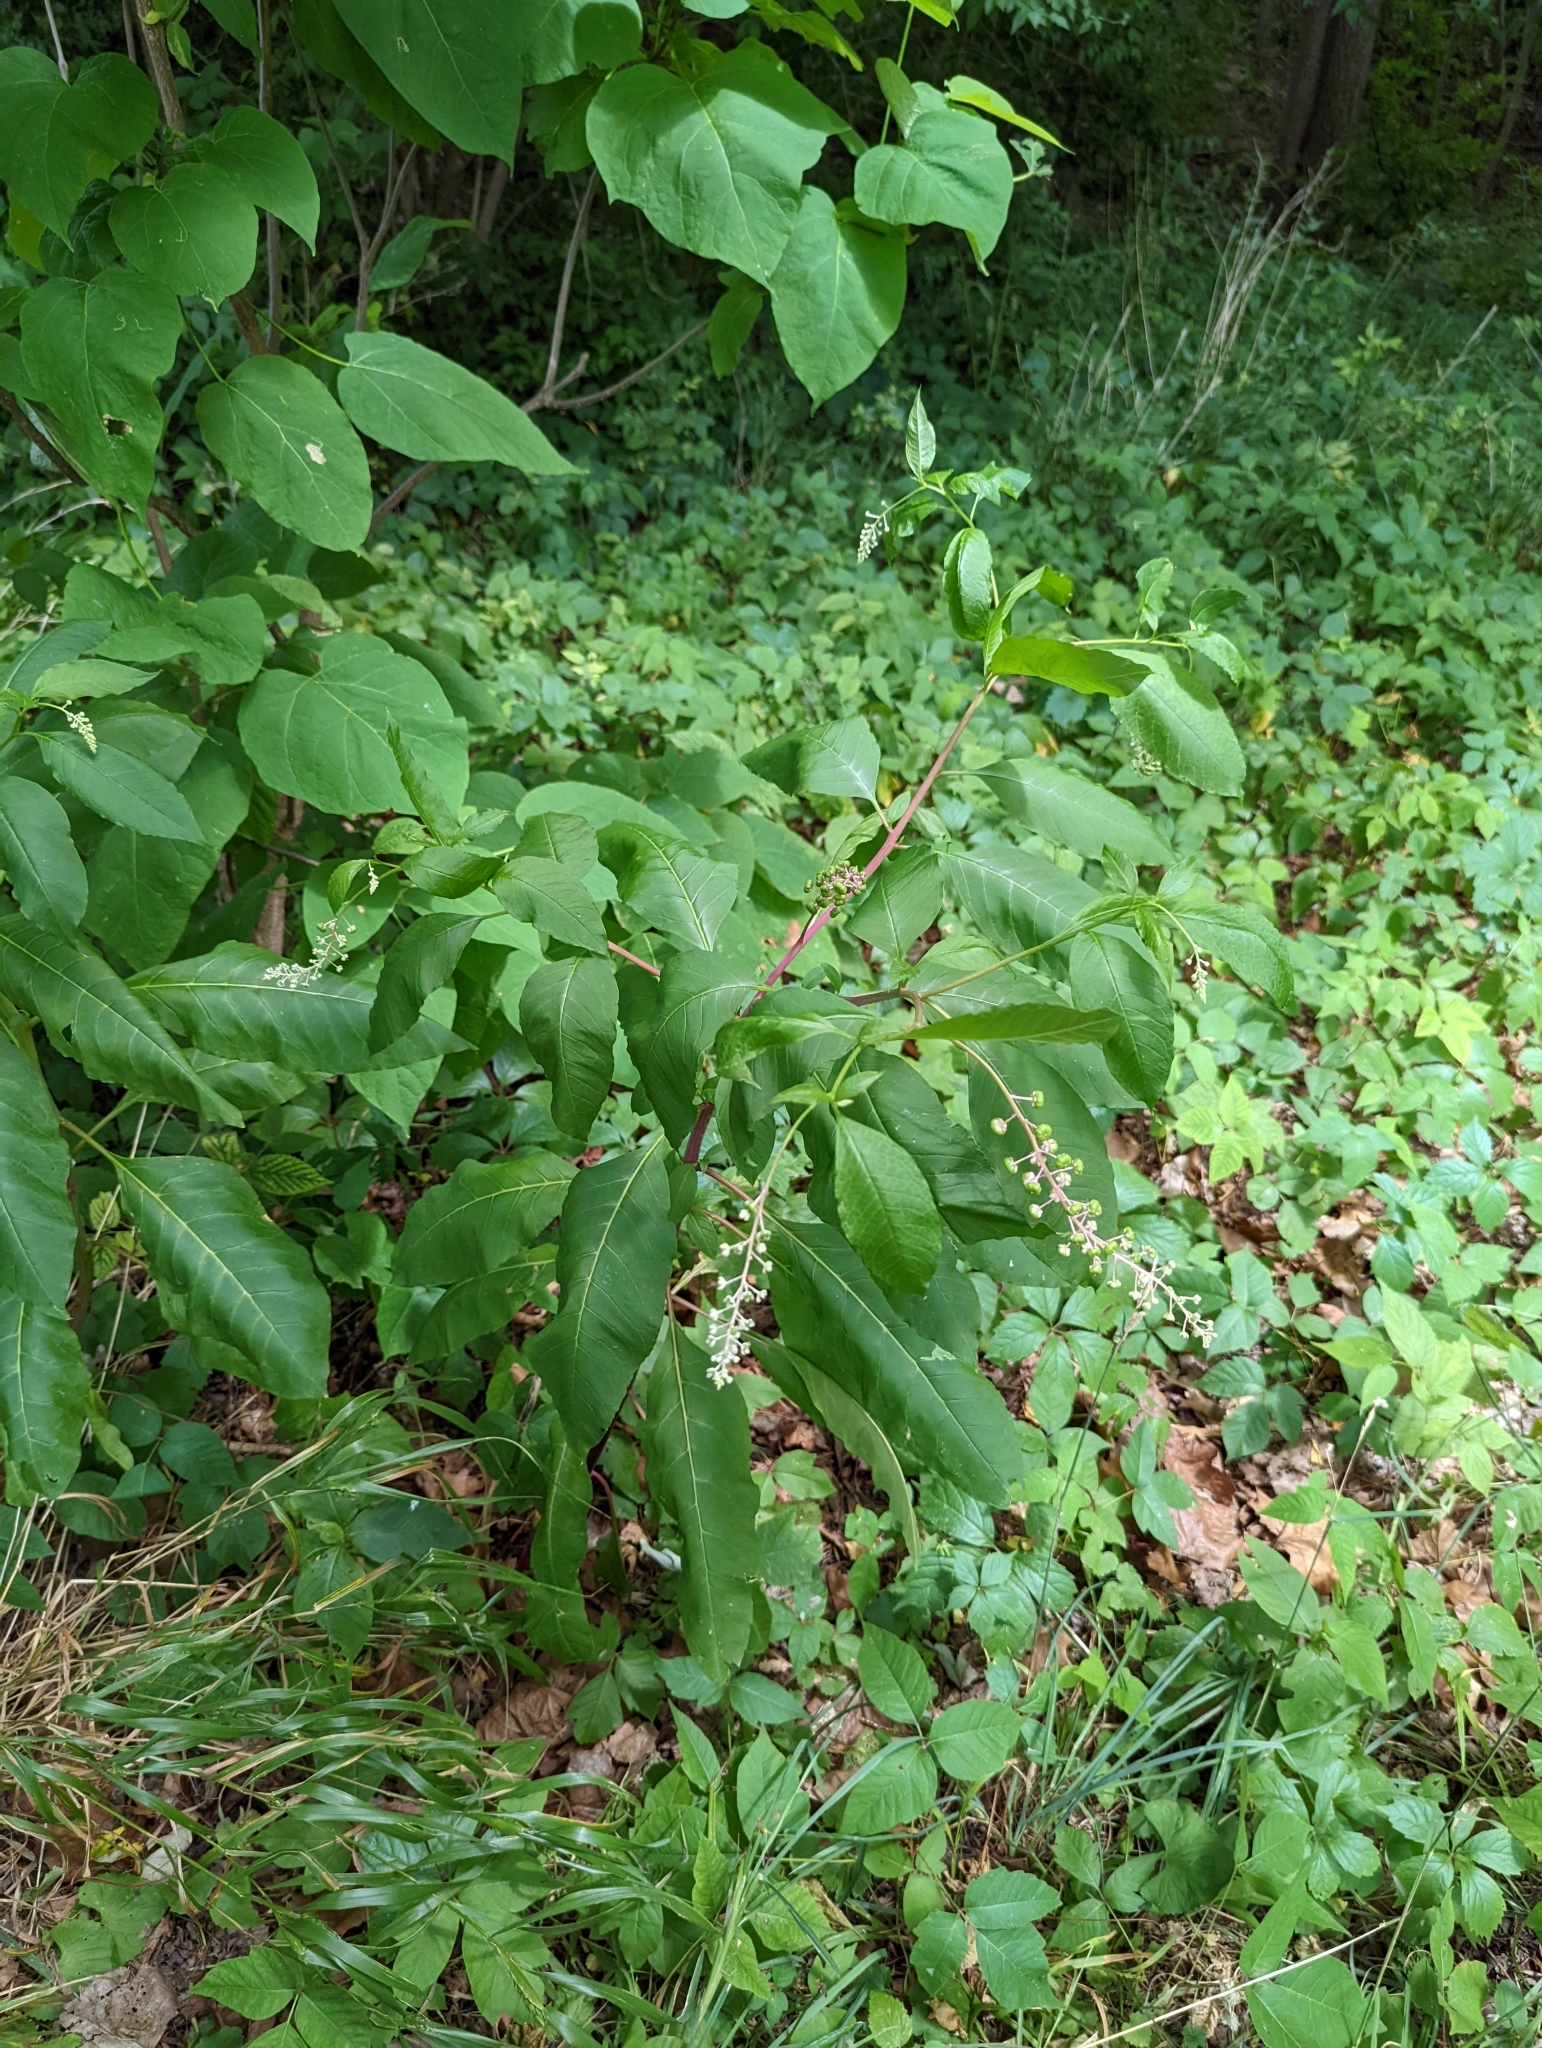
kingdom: Plantae
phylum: Tracheophyta
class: Magnoliopsida
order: Caryophyllales
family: Phytolaccaceae
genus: Phytolacca
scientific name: Phytolacca americana
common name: American pokeweed
